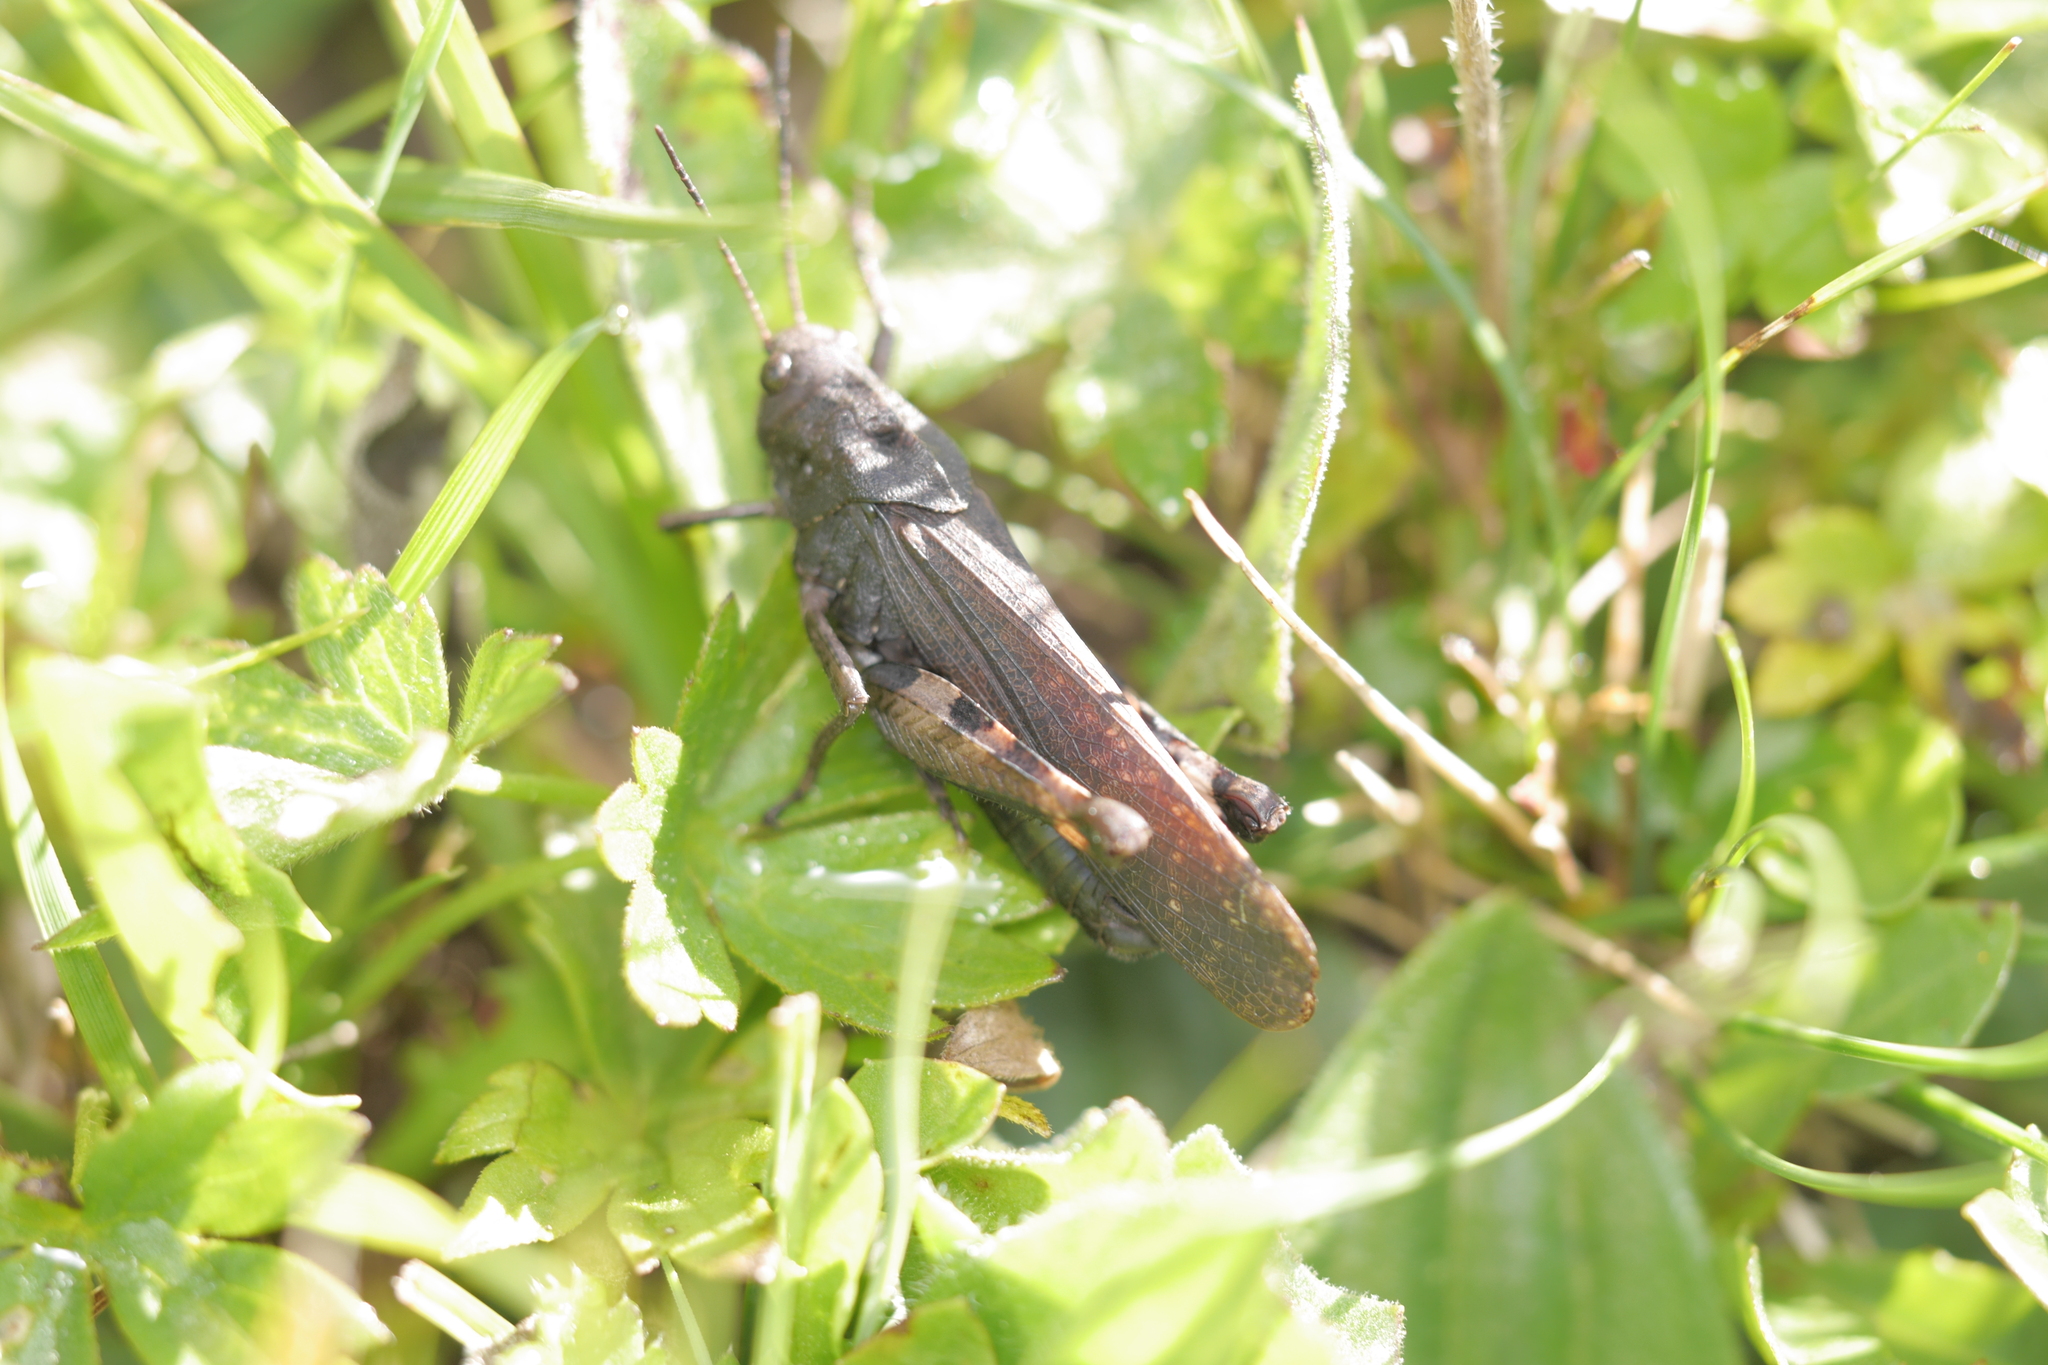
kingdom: Animalia
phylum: Arthropoda
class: Insecta
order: Orthoptera
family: Acrididae
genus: Psophus
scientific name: Psophus stridulus
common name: Rattle grasshopper
